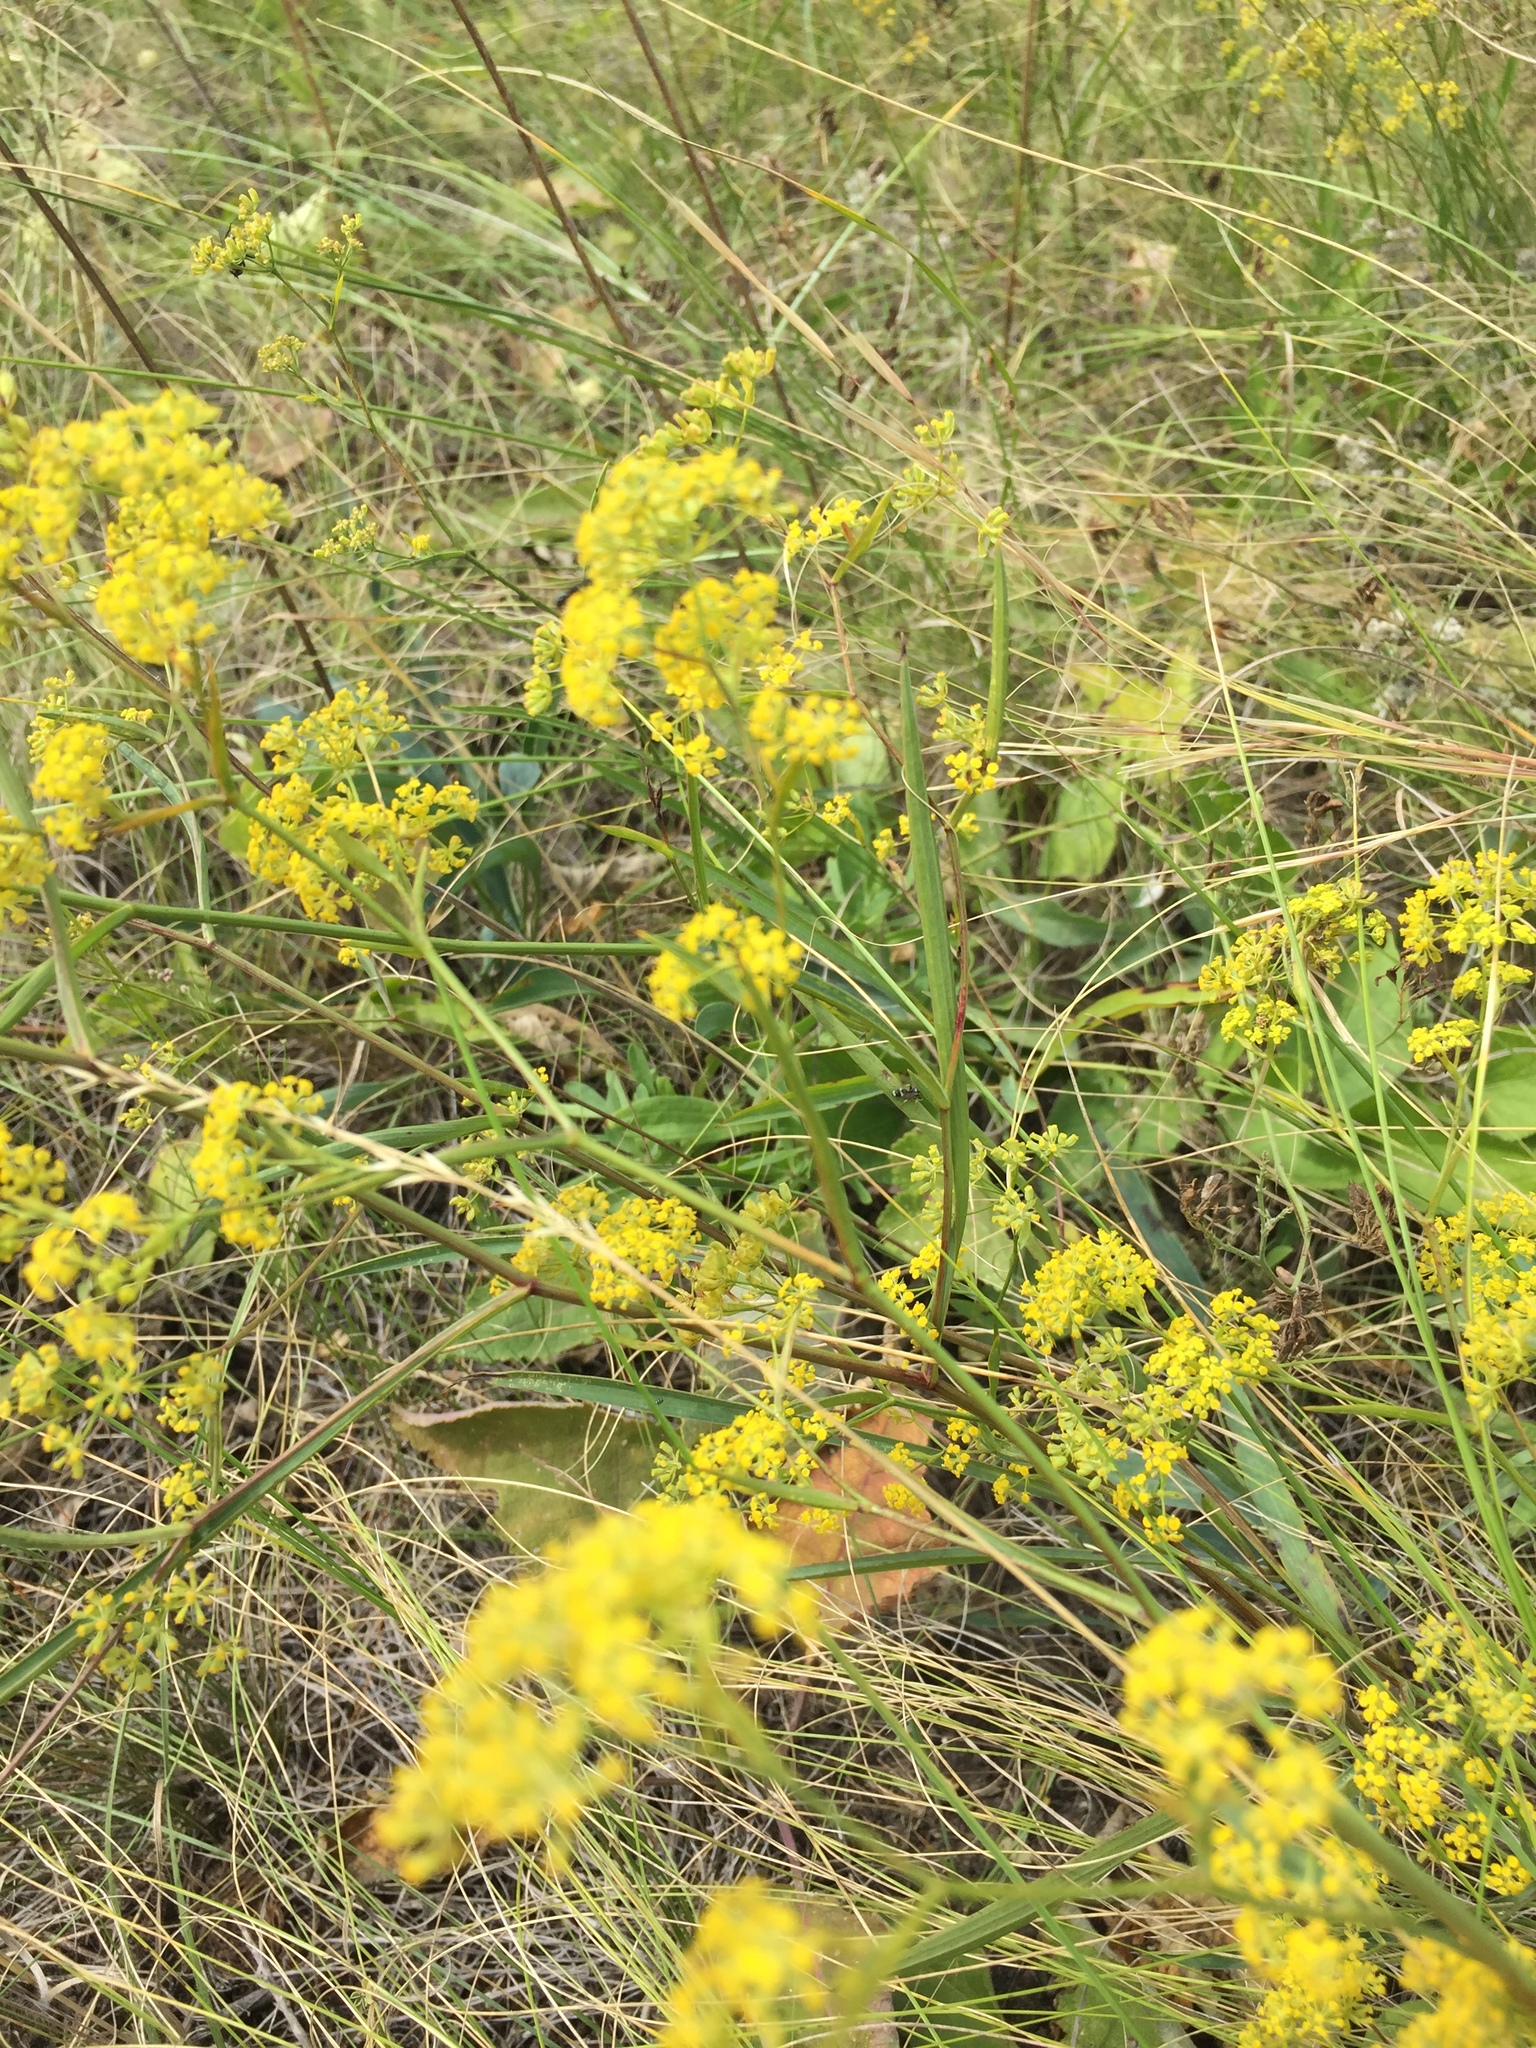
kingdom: Plantae
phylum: Tracheophyta
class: Magnoliopsida
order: Apiales
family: Apiaceae
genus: Bupleurum
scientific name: Bupleurum falcatum
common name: Sickle-leaved hare's-ear
